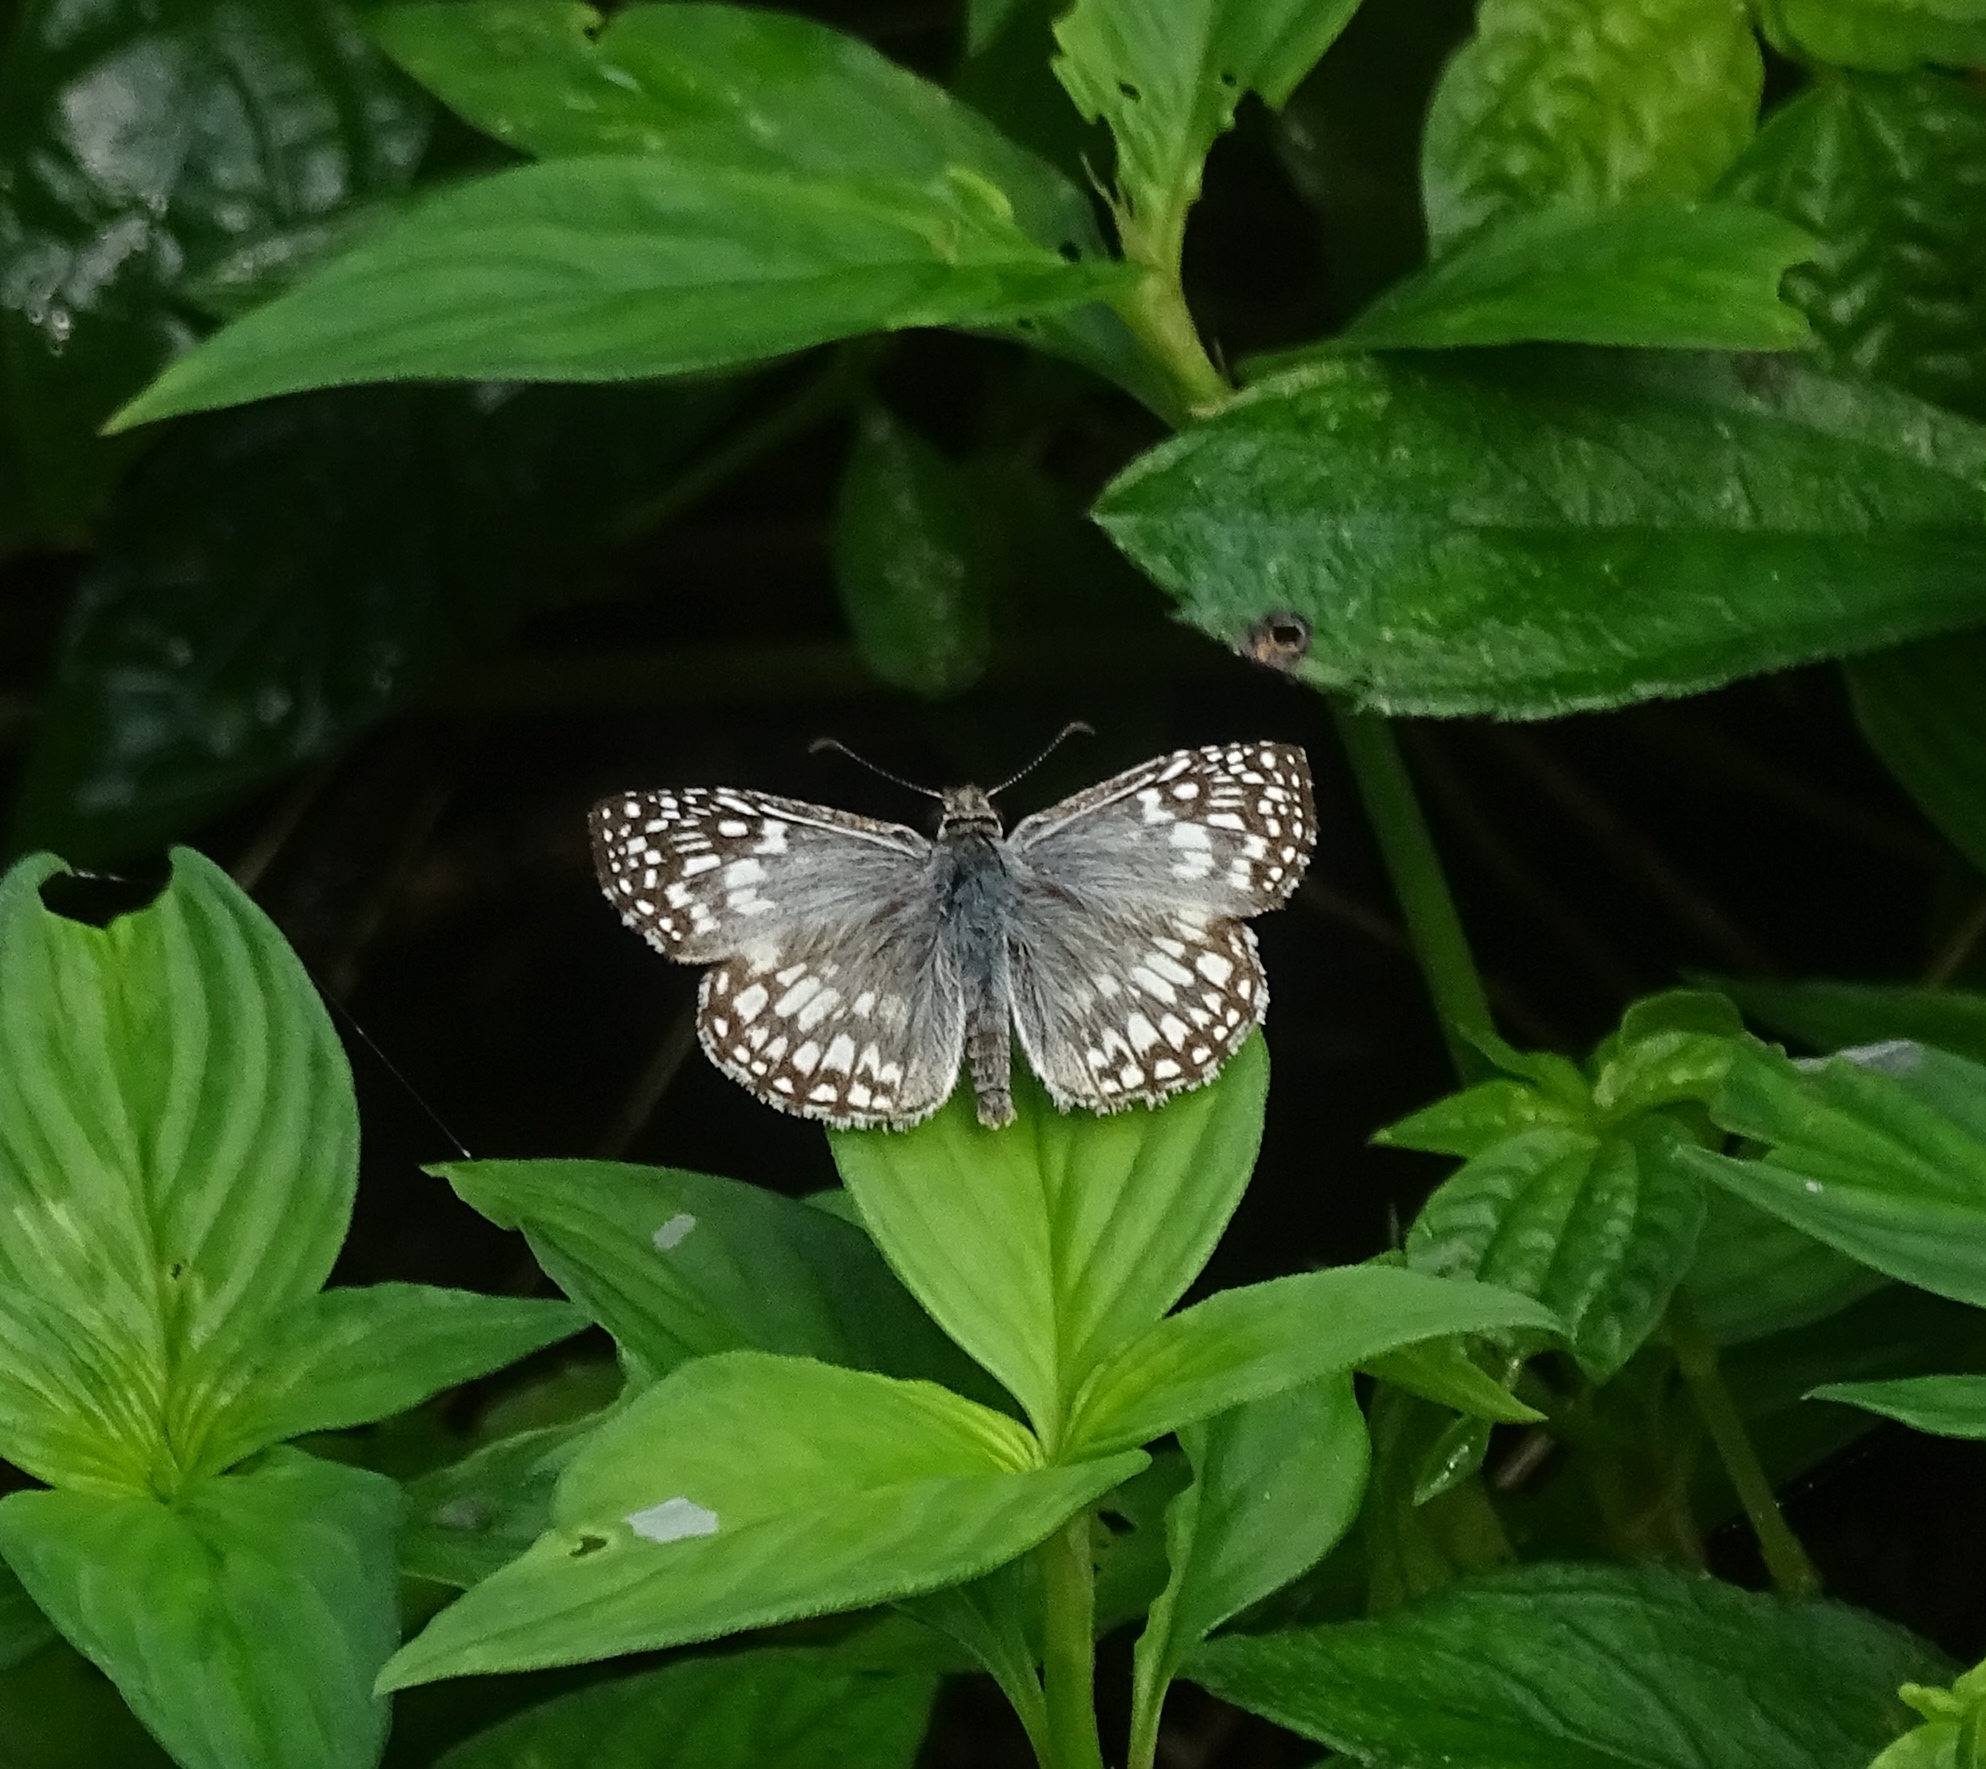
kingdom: Animalia
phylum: Arthropoda
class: Insecta
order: Lepidoptera
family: Hesperiidae
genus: Pyrgus
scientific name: Pyrgus oileus
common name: Tropical checkered-skipper
